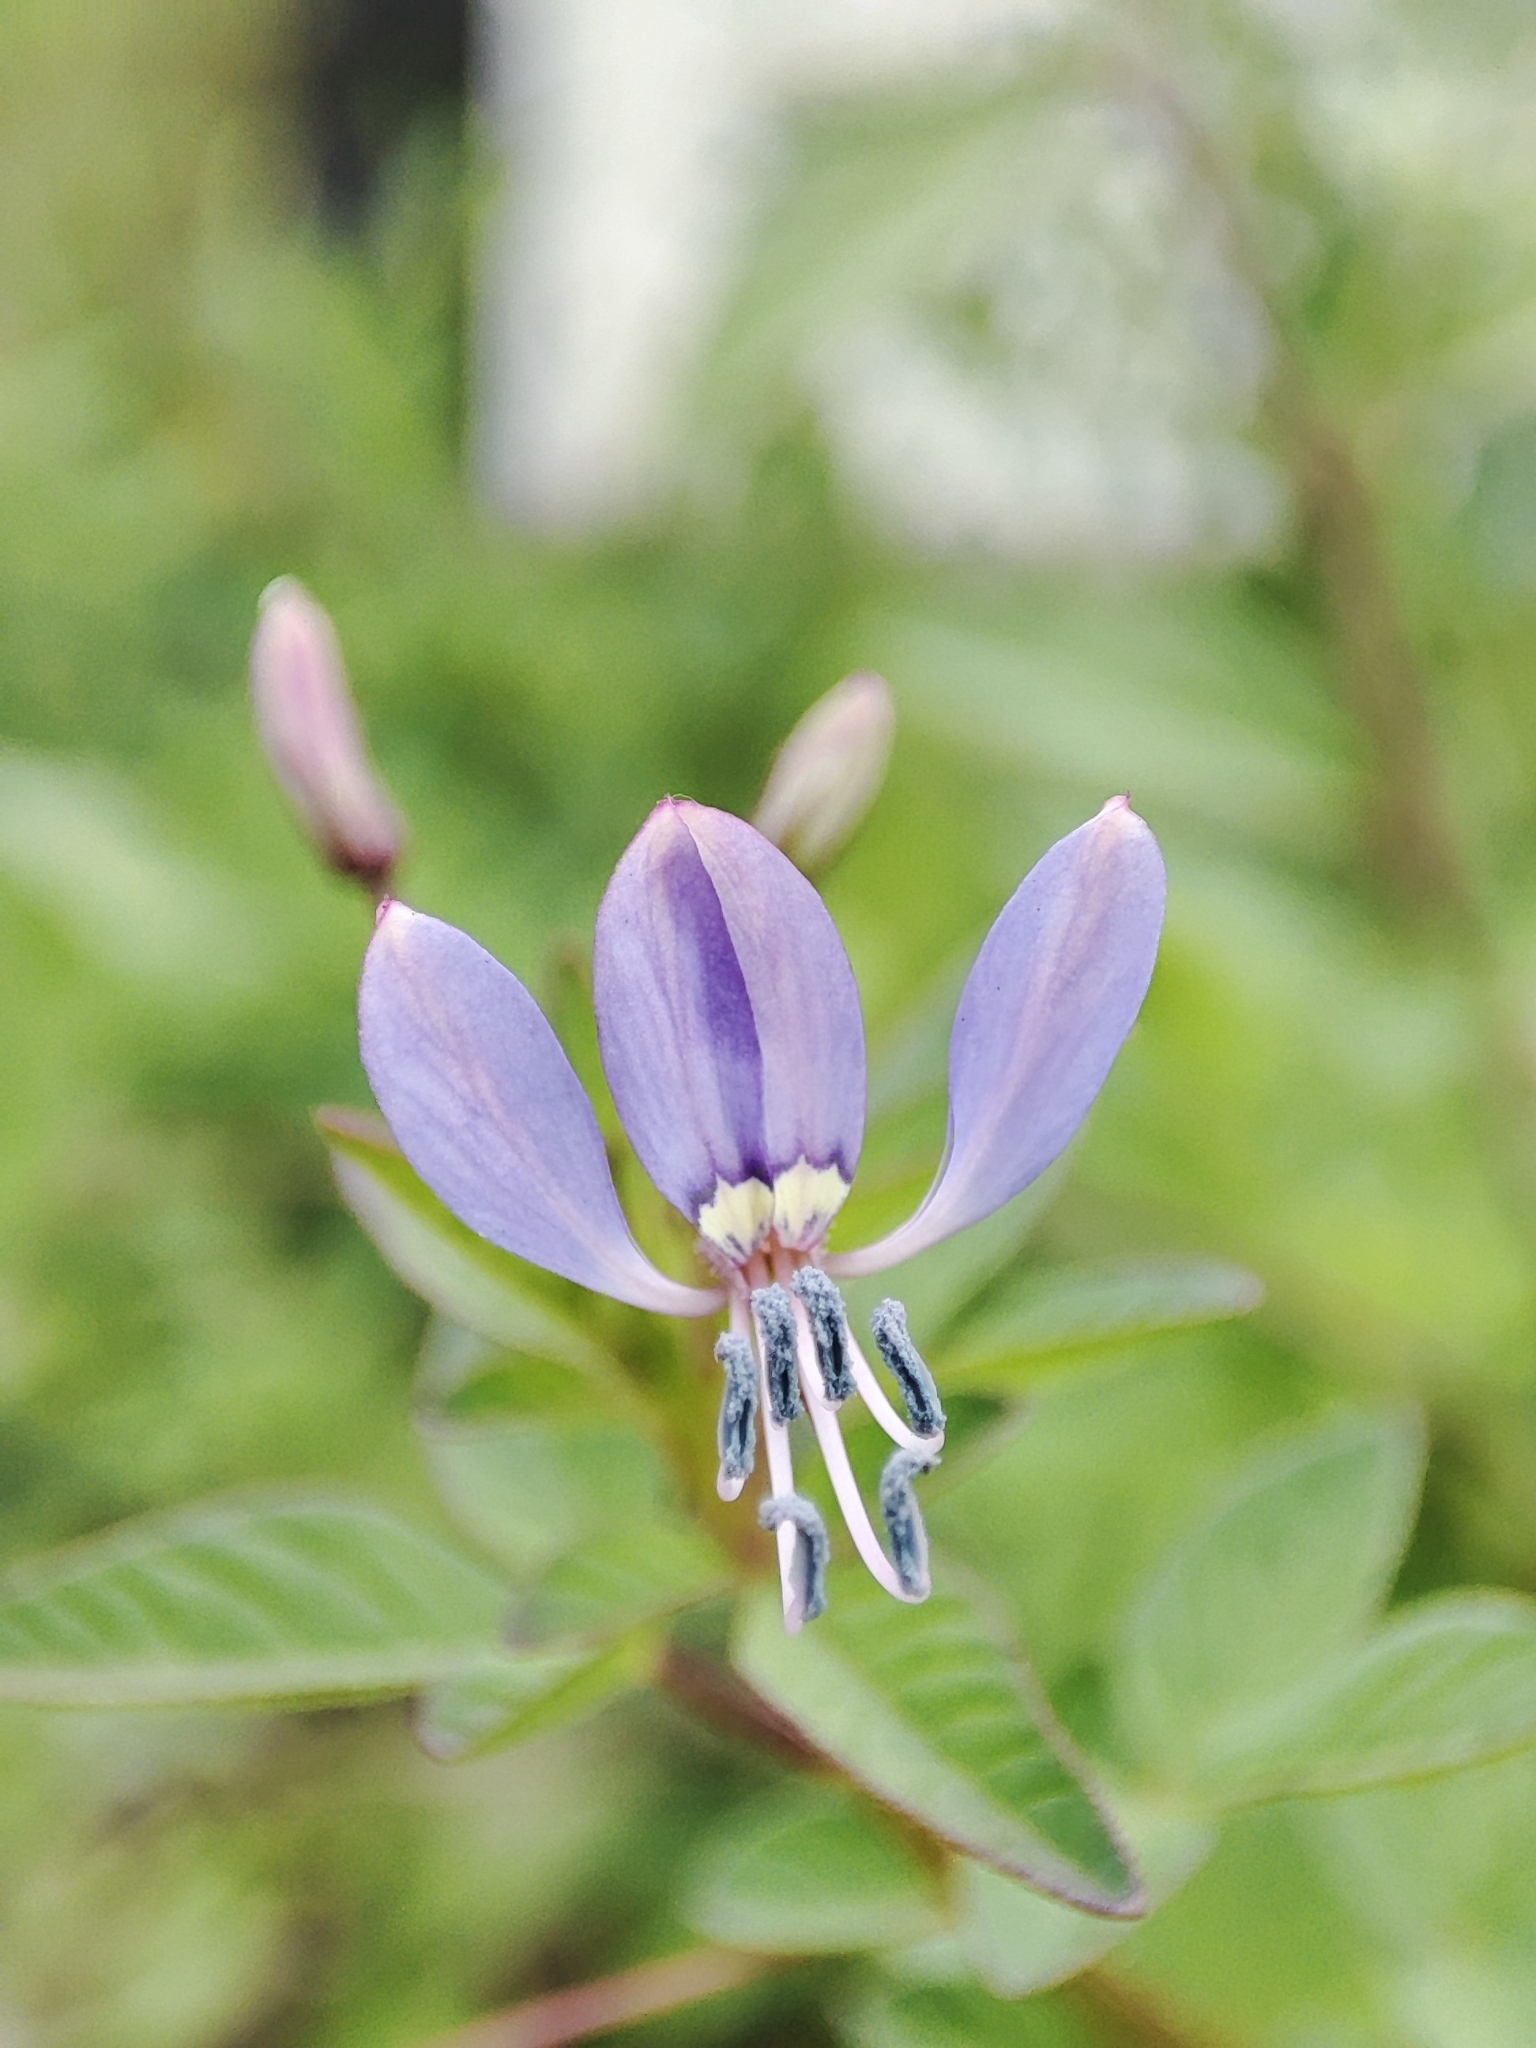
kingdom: Plantae
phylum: Tracheophyta
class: Magnoliopsida
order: Brassicales
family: Cleomaceae
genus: Sieruela
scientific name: Sieruela rutidosperma
